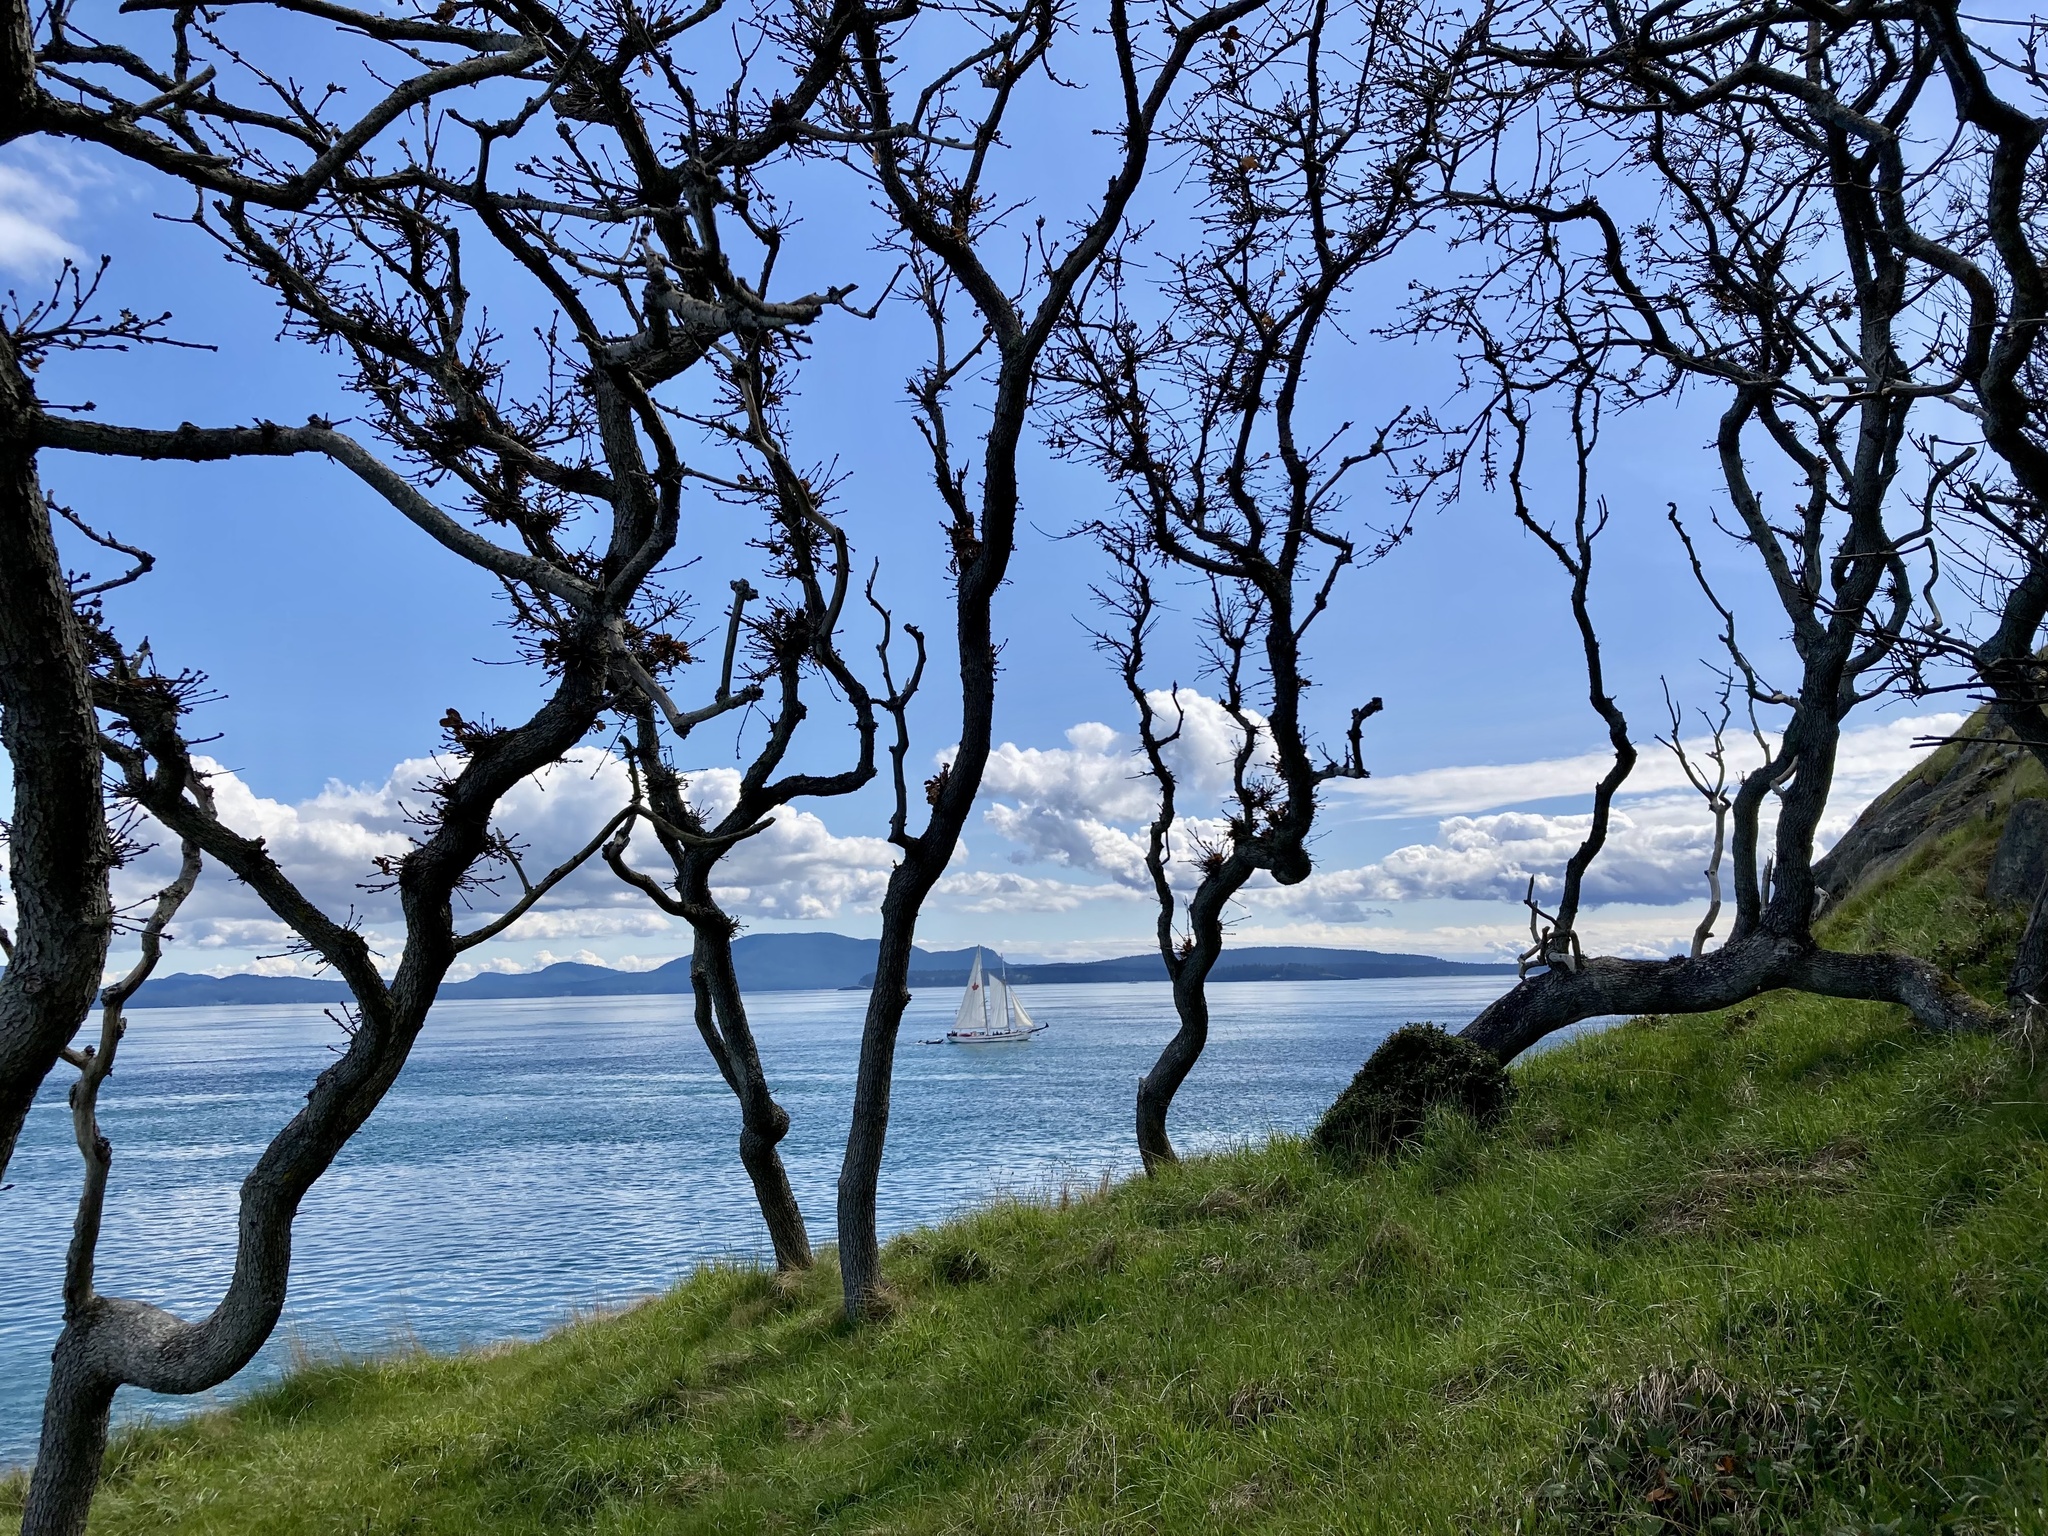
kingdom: Plantae
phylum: Tracheophyta
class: Magnoliopsida
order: Fagales
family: Fagaceae
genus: Quercus
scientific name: Quercus garryana
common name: Garry oak
